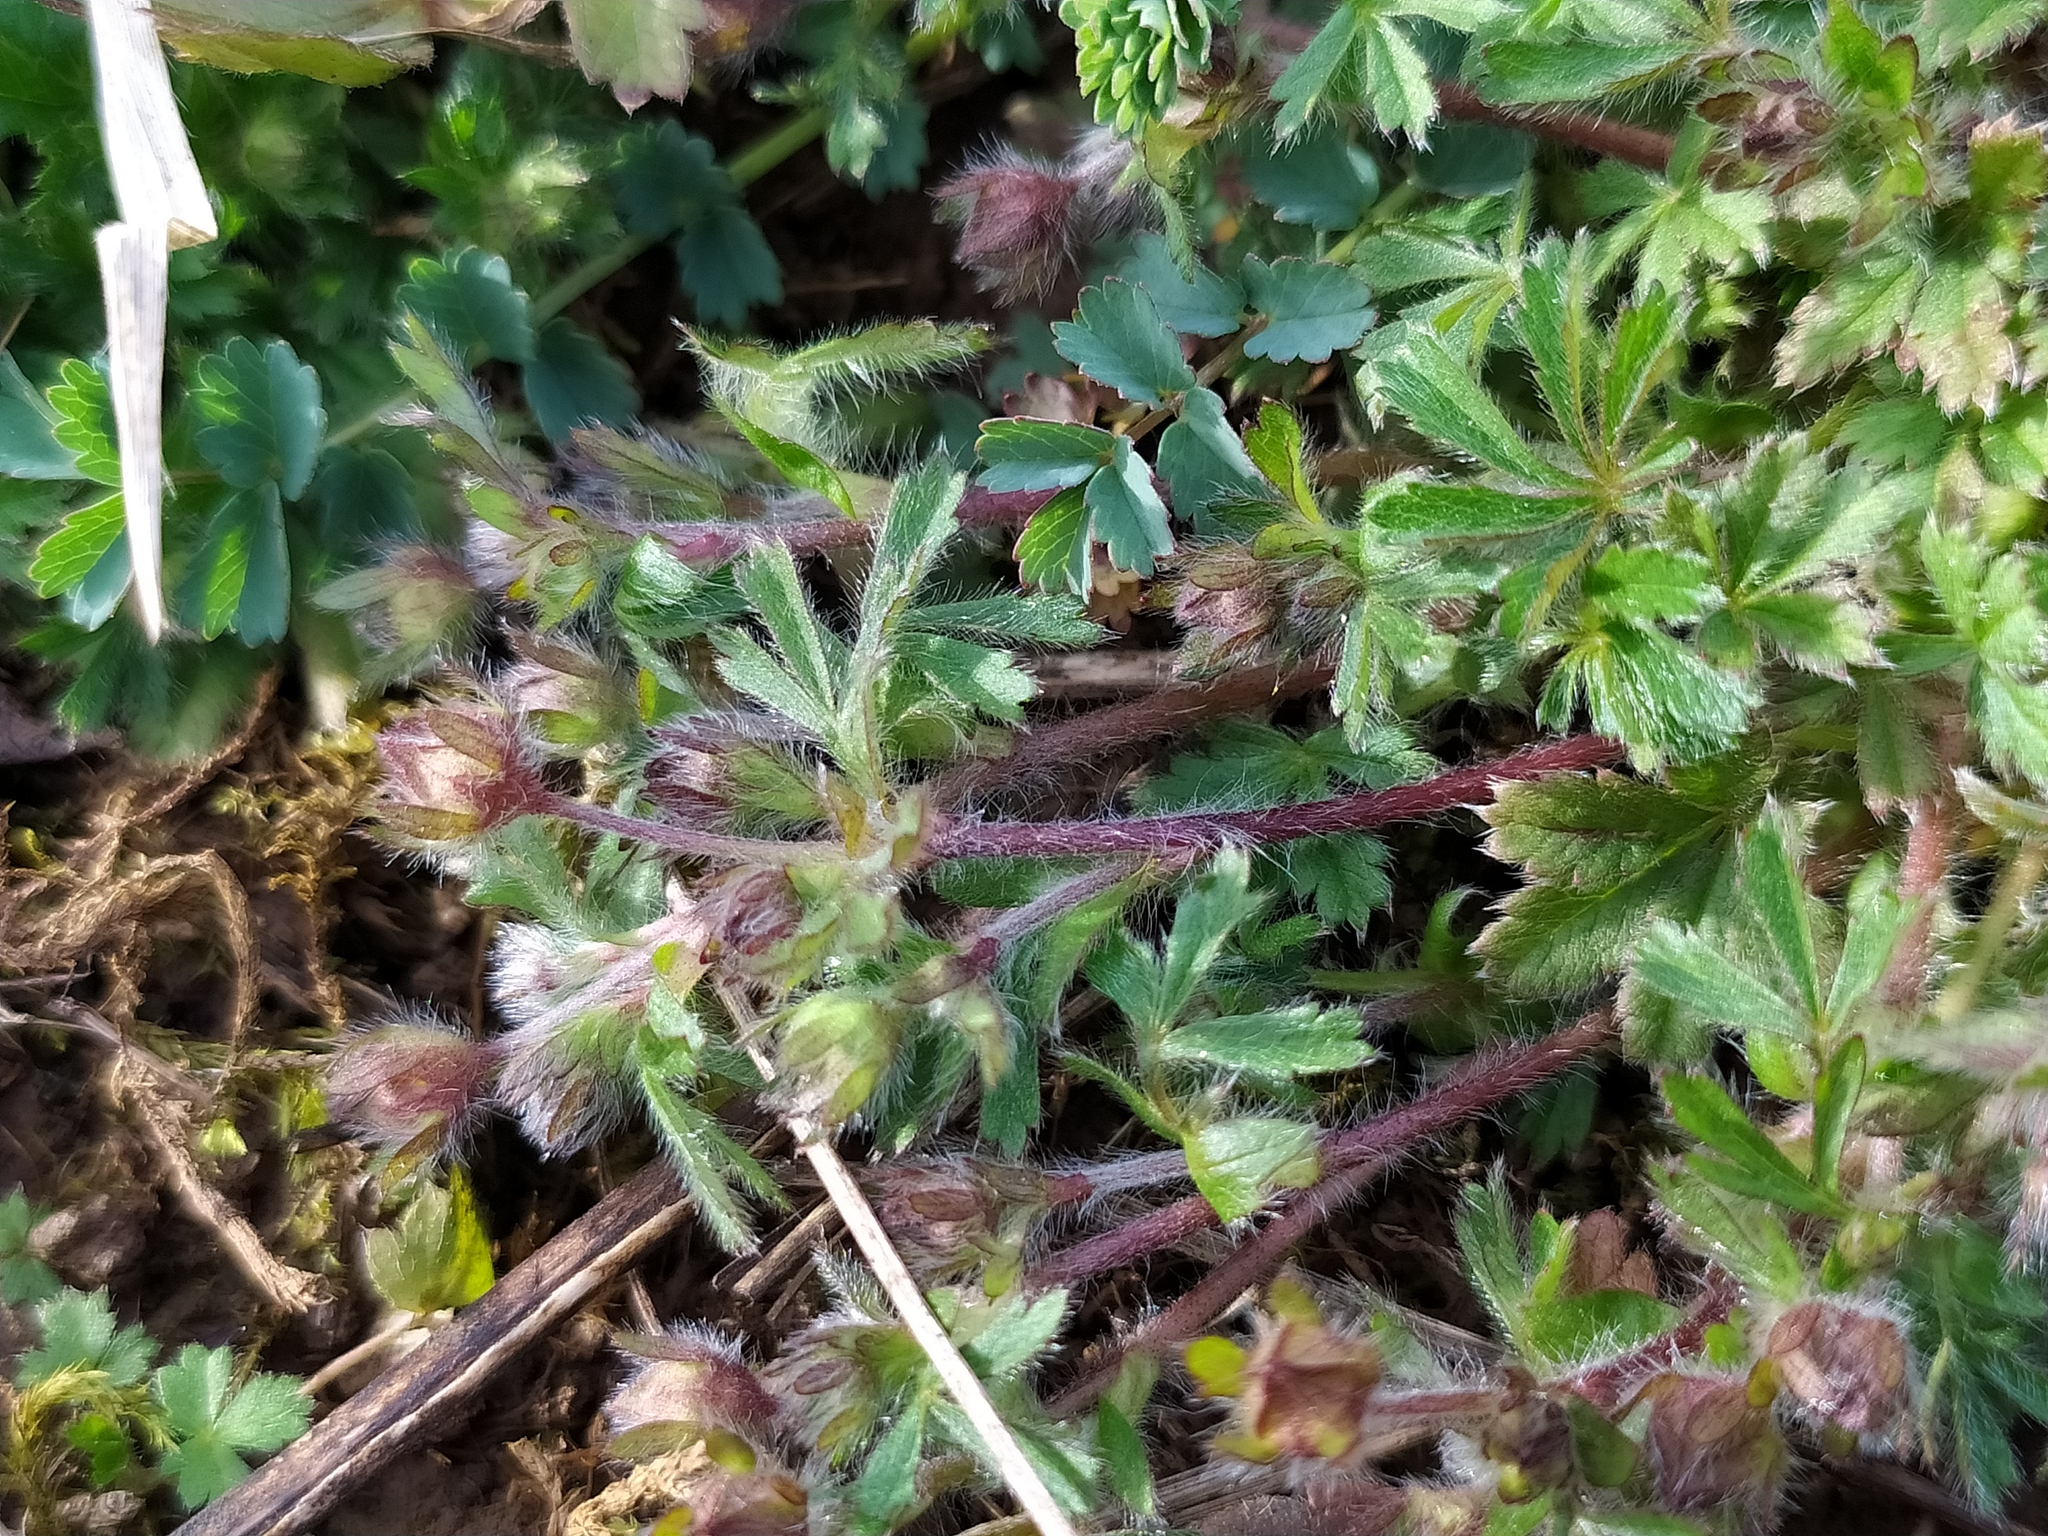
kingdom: Plantae
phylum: Tracheophyta
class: Magnoliopsida
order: Rosales
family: Rosaceae
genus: Potentilla
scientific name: Potentilla heptaphylla
